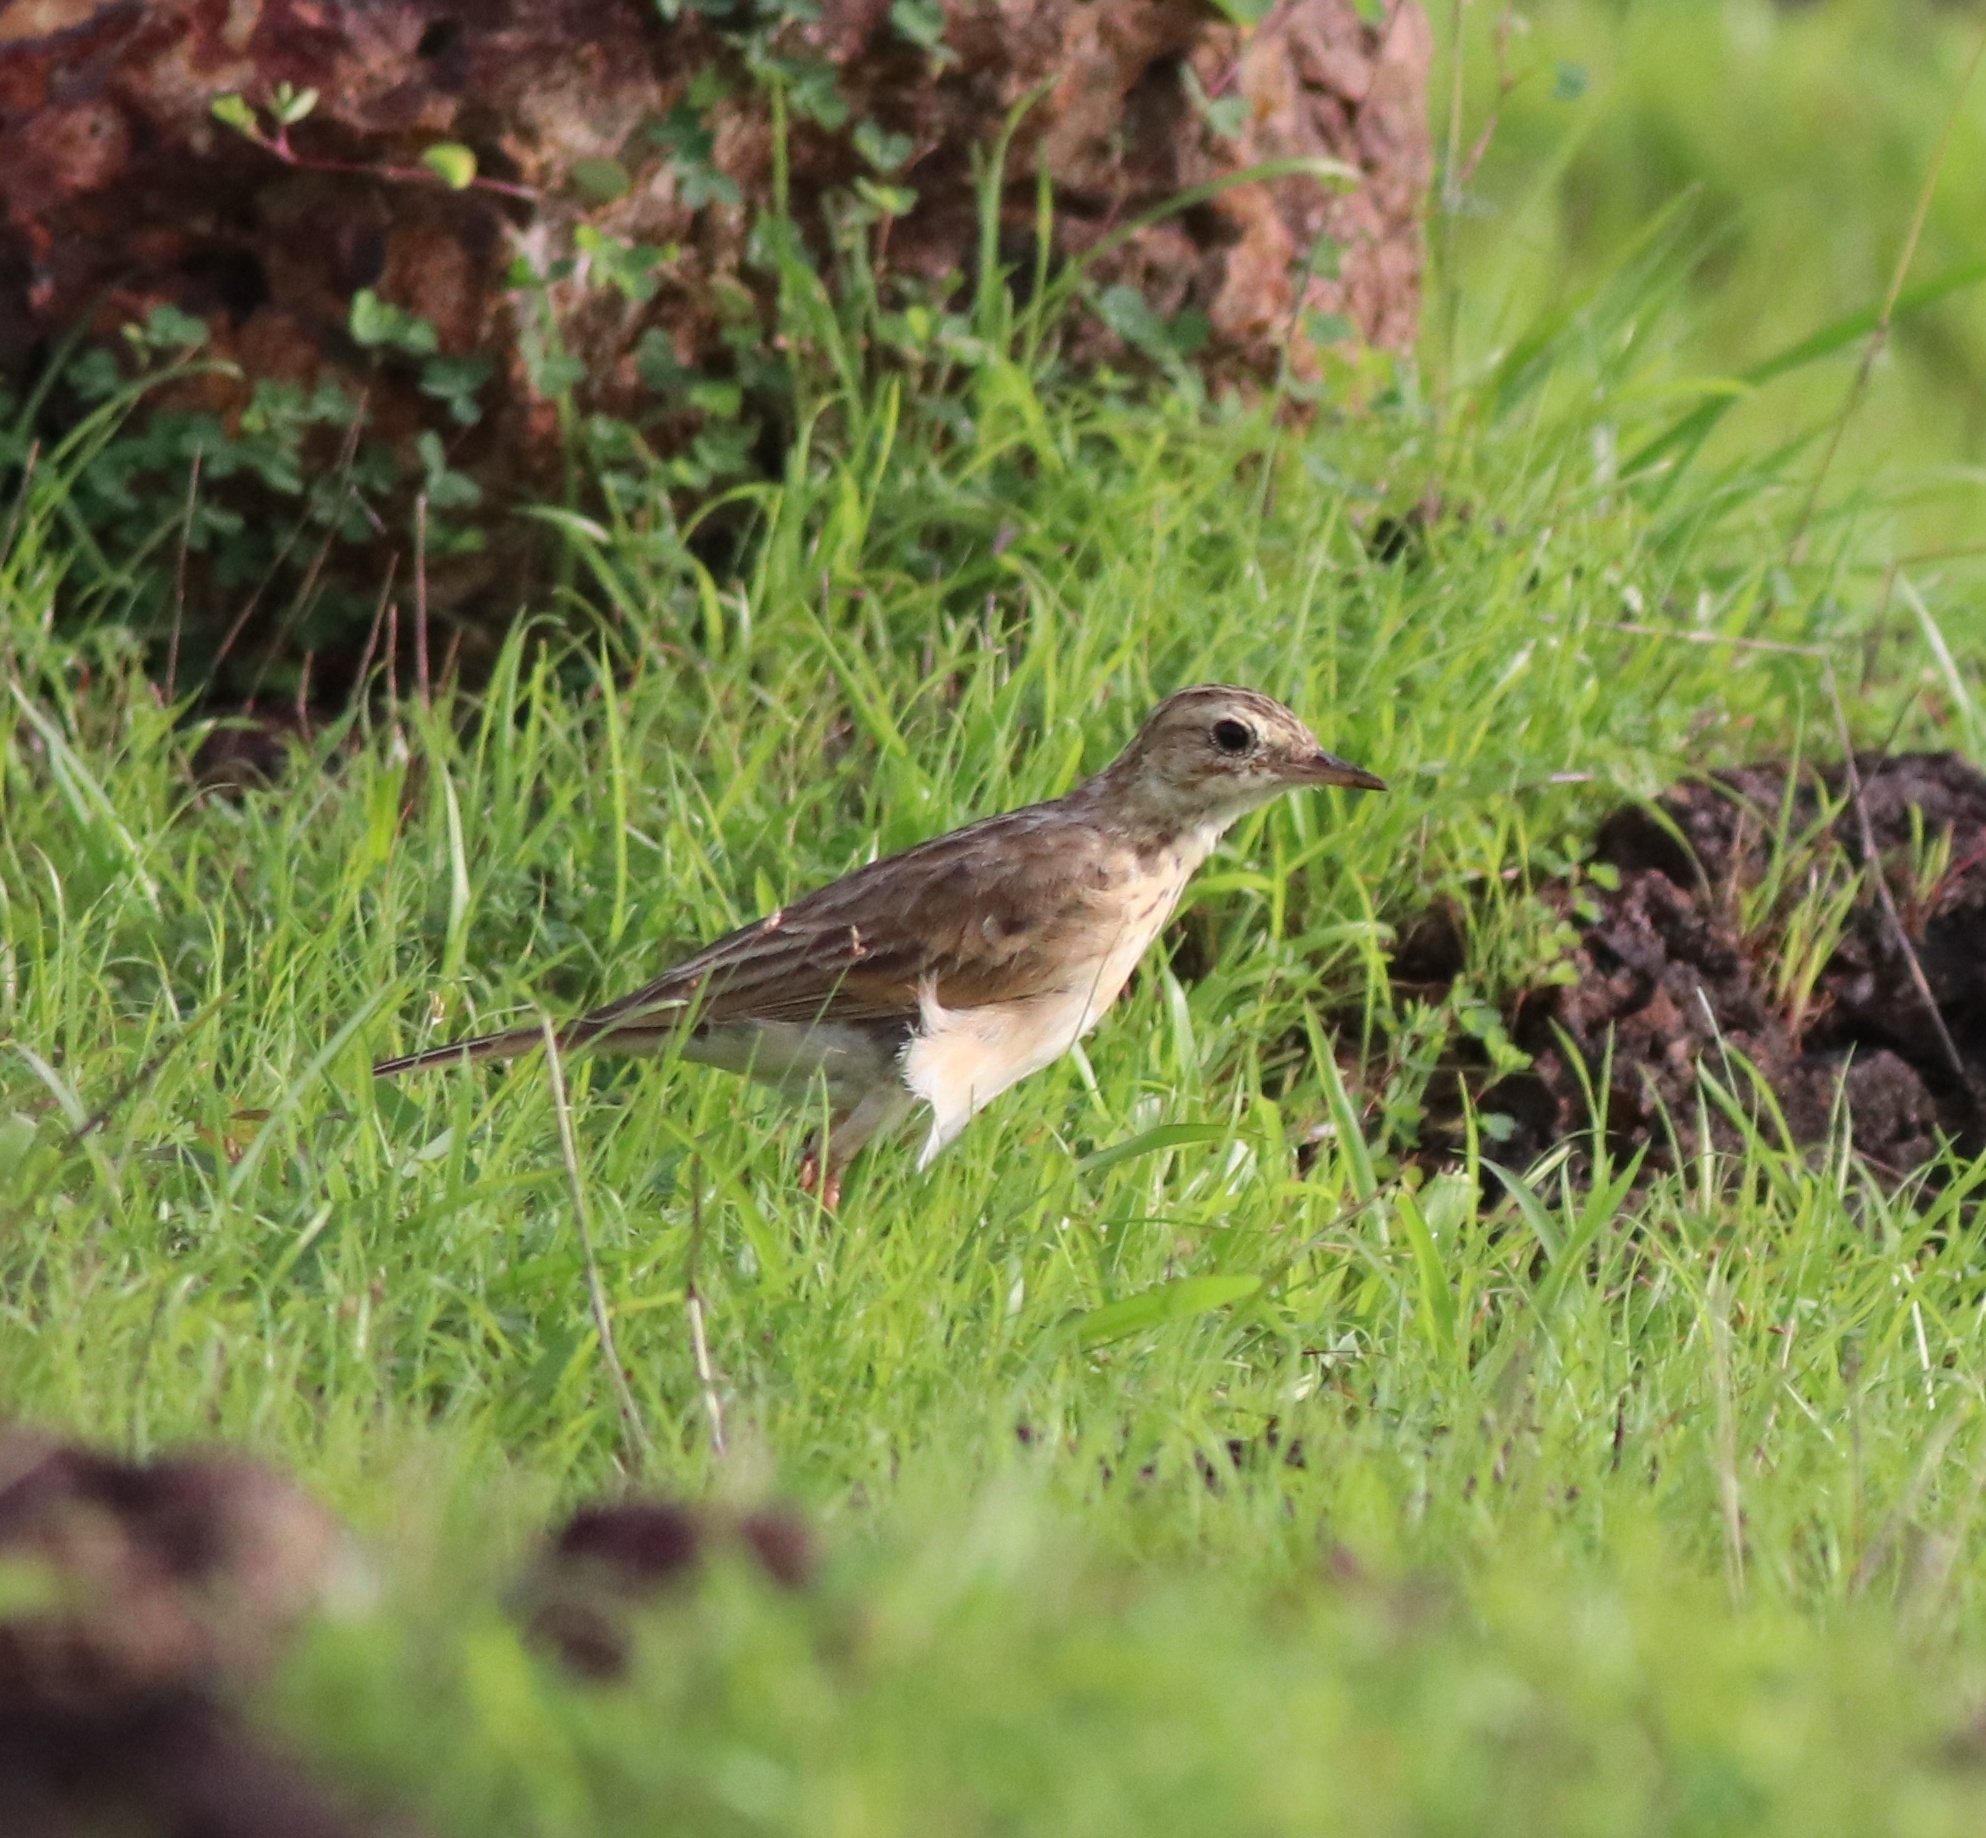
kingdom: Animalia
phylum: Chordata
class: Aves
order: Passeriformes
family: Motacillidae
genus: Anthus
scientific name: Anthus rufulus
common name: Paddyfield pipit
